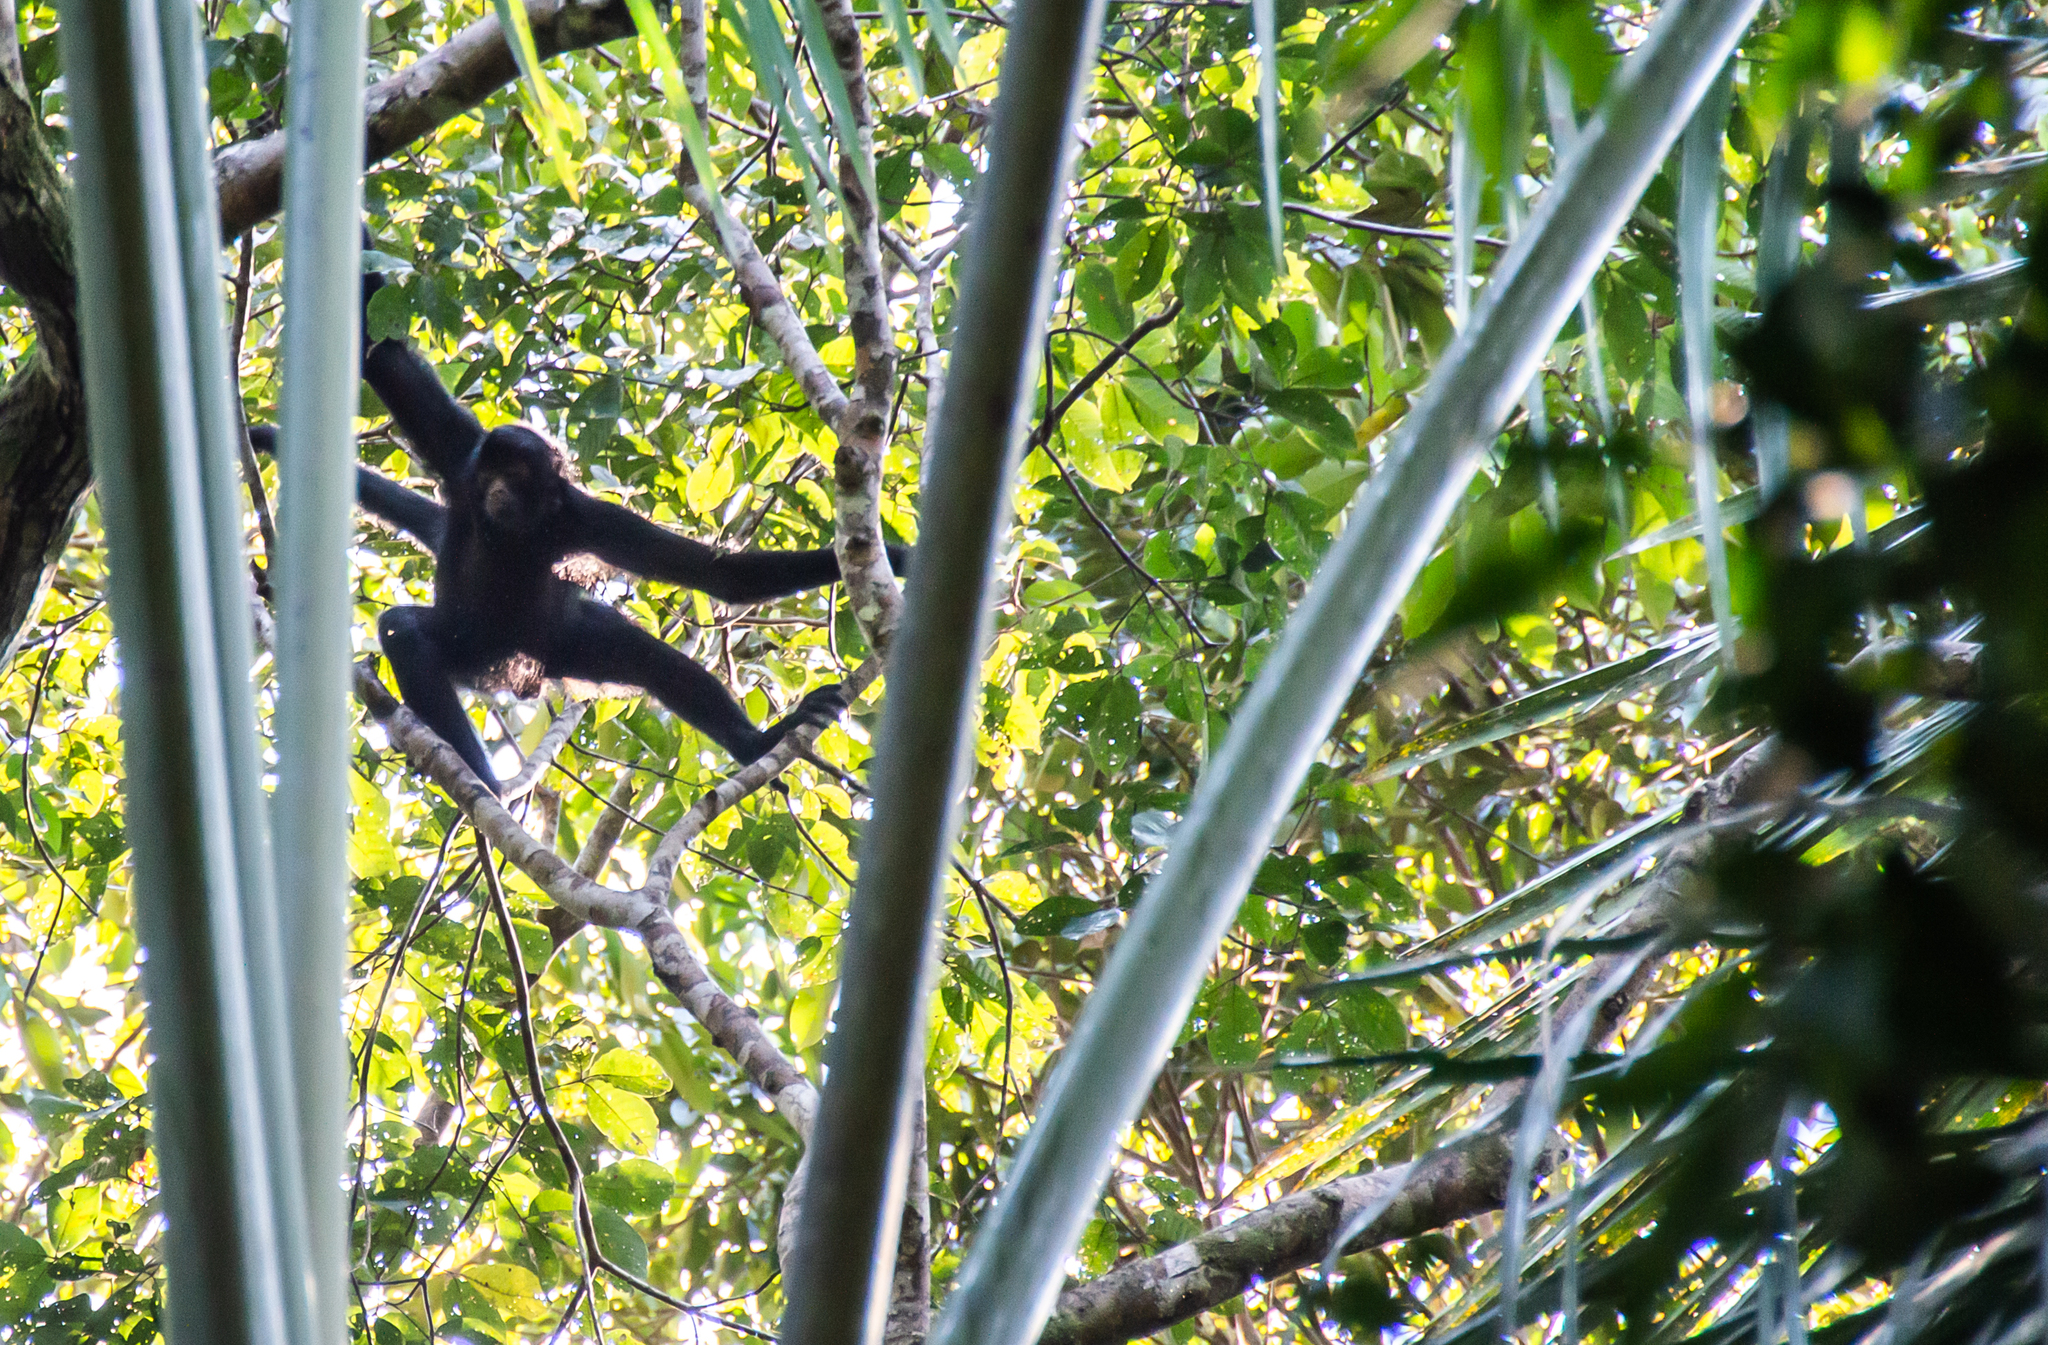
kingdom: Animalia
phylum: Chordata
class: Mammalia
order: Primates
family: Atelidae
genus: Ateles
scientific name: Ateles chamek
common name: Peruvian spider monkey
